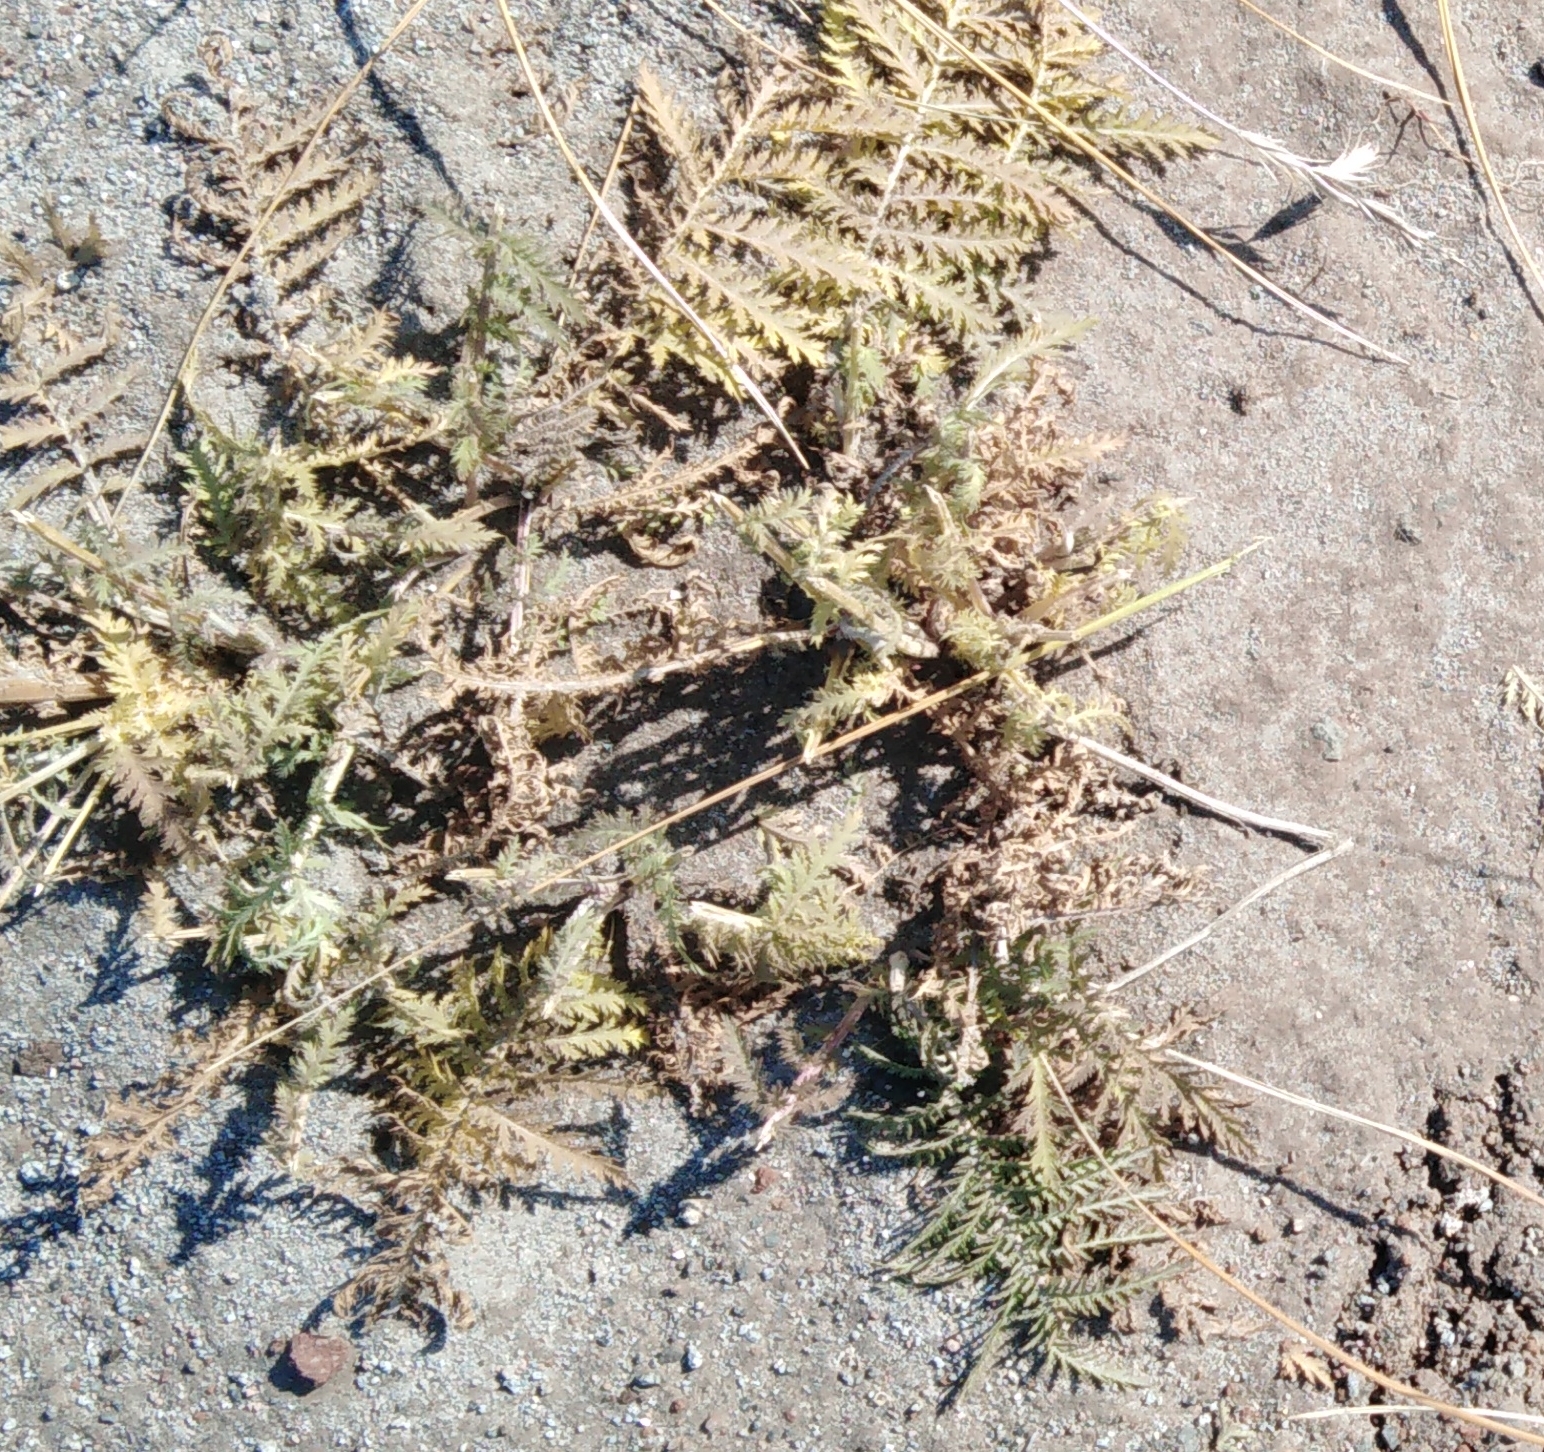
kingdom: Plantae
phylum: Tracheophyta
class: Magnoliopsida
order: Asterales
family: Asteraceae
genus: Tanacetum
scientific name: Tanacetum vulgare
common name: Common tansy
